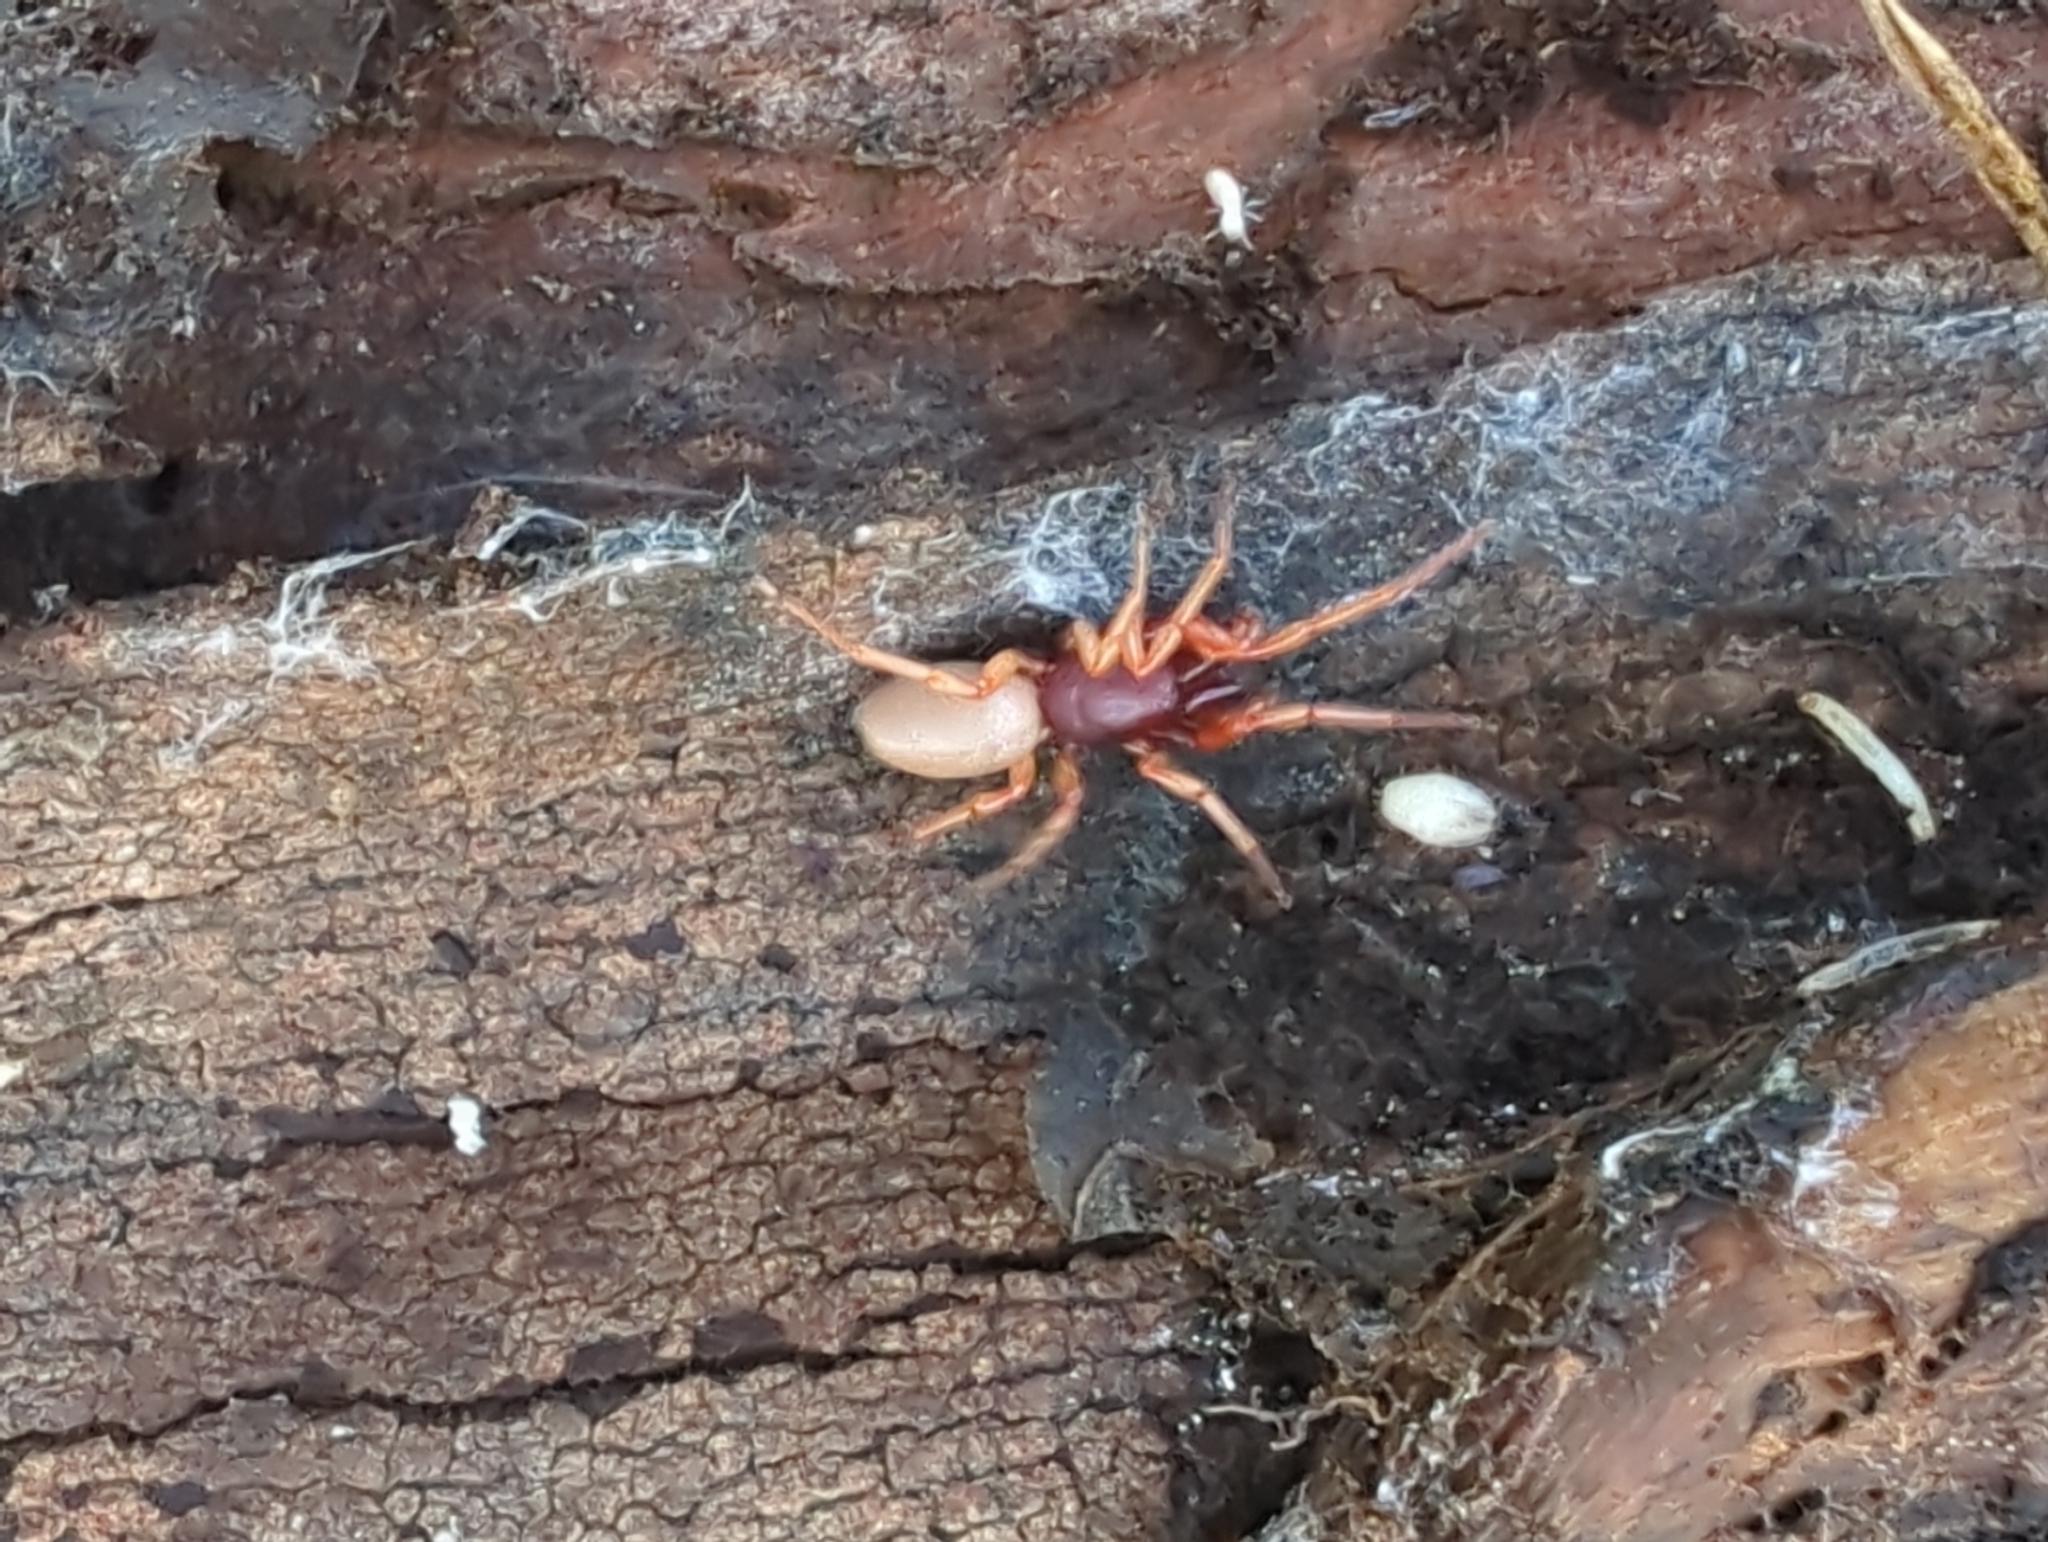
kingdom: Animalia
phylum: Arthropoda
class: Arachnida
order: Araneae
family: Dysderidae
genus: Dysdera
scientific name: Dysdera crocata
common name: Woodlouse spider
